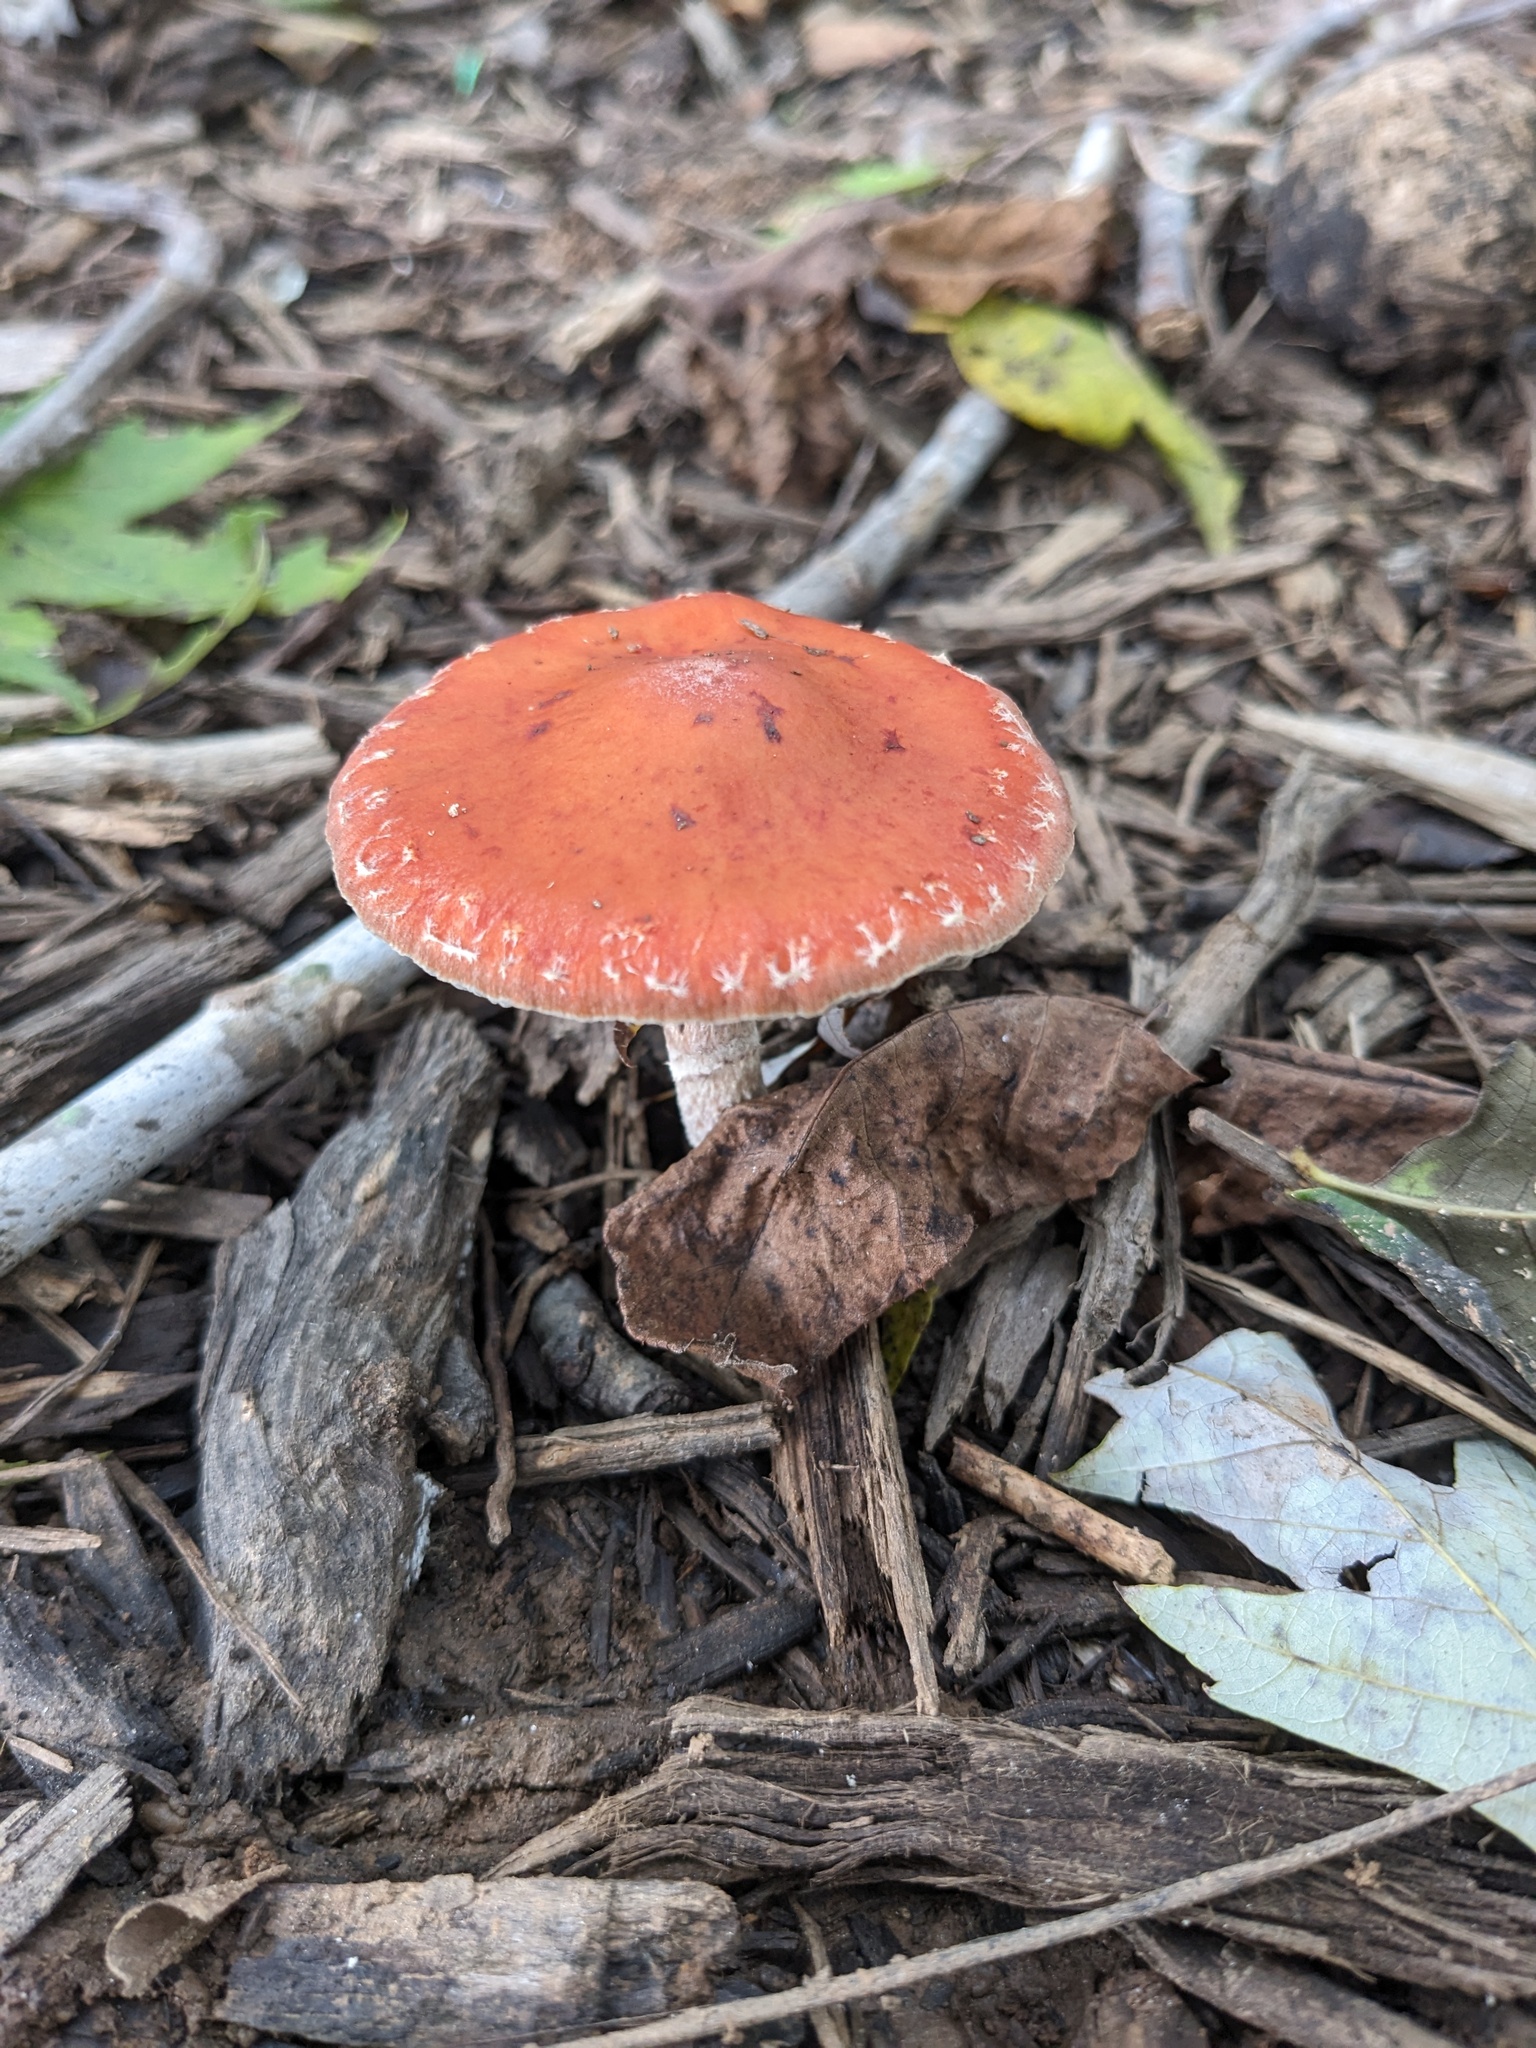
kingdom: Fungi
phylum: Basidiomycota
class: Agaricomycetes
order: Agaricales
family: Strophariaceae
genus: Leratiomyces
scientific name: Leratiomyces ceres
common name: Redlead roundhead
